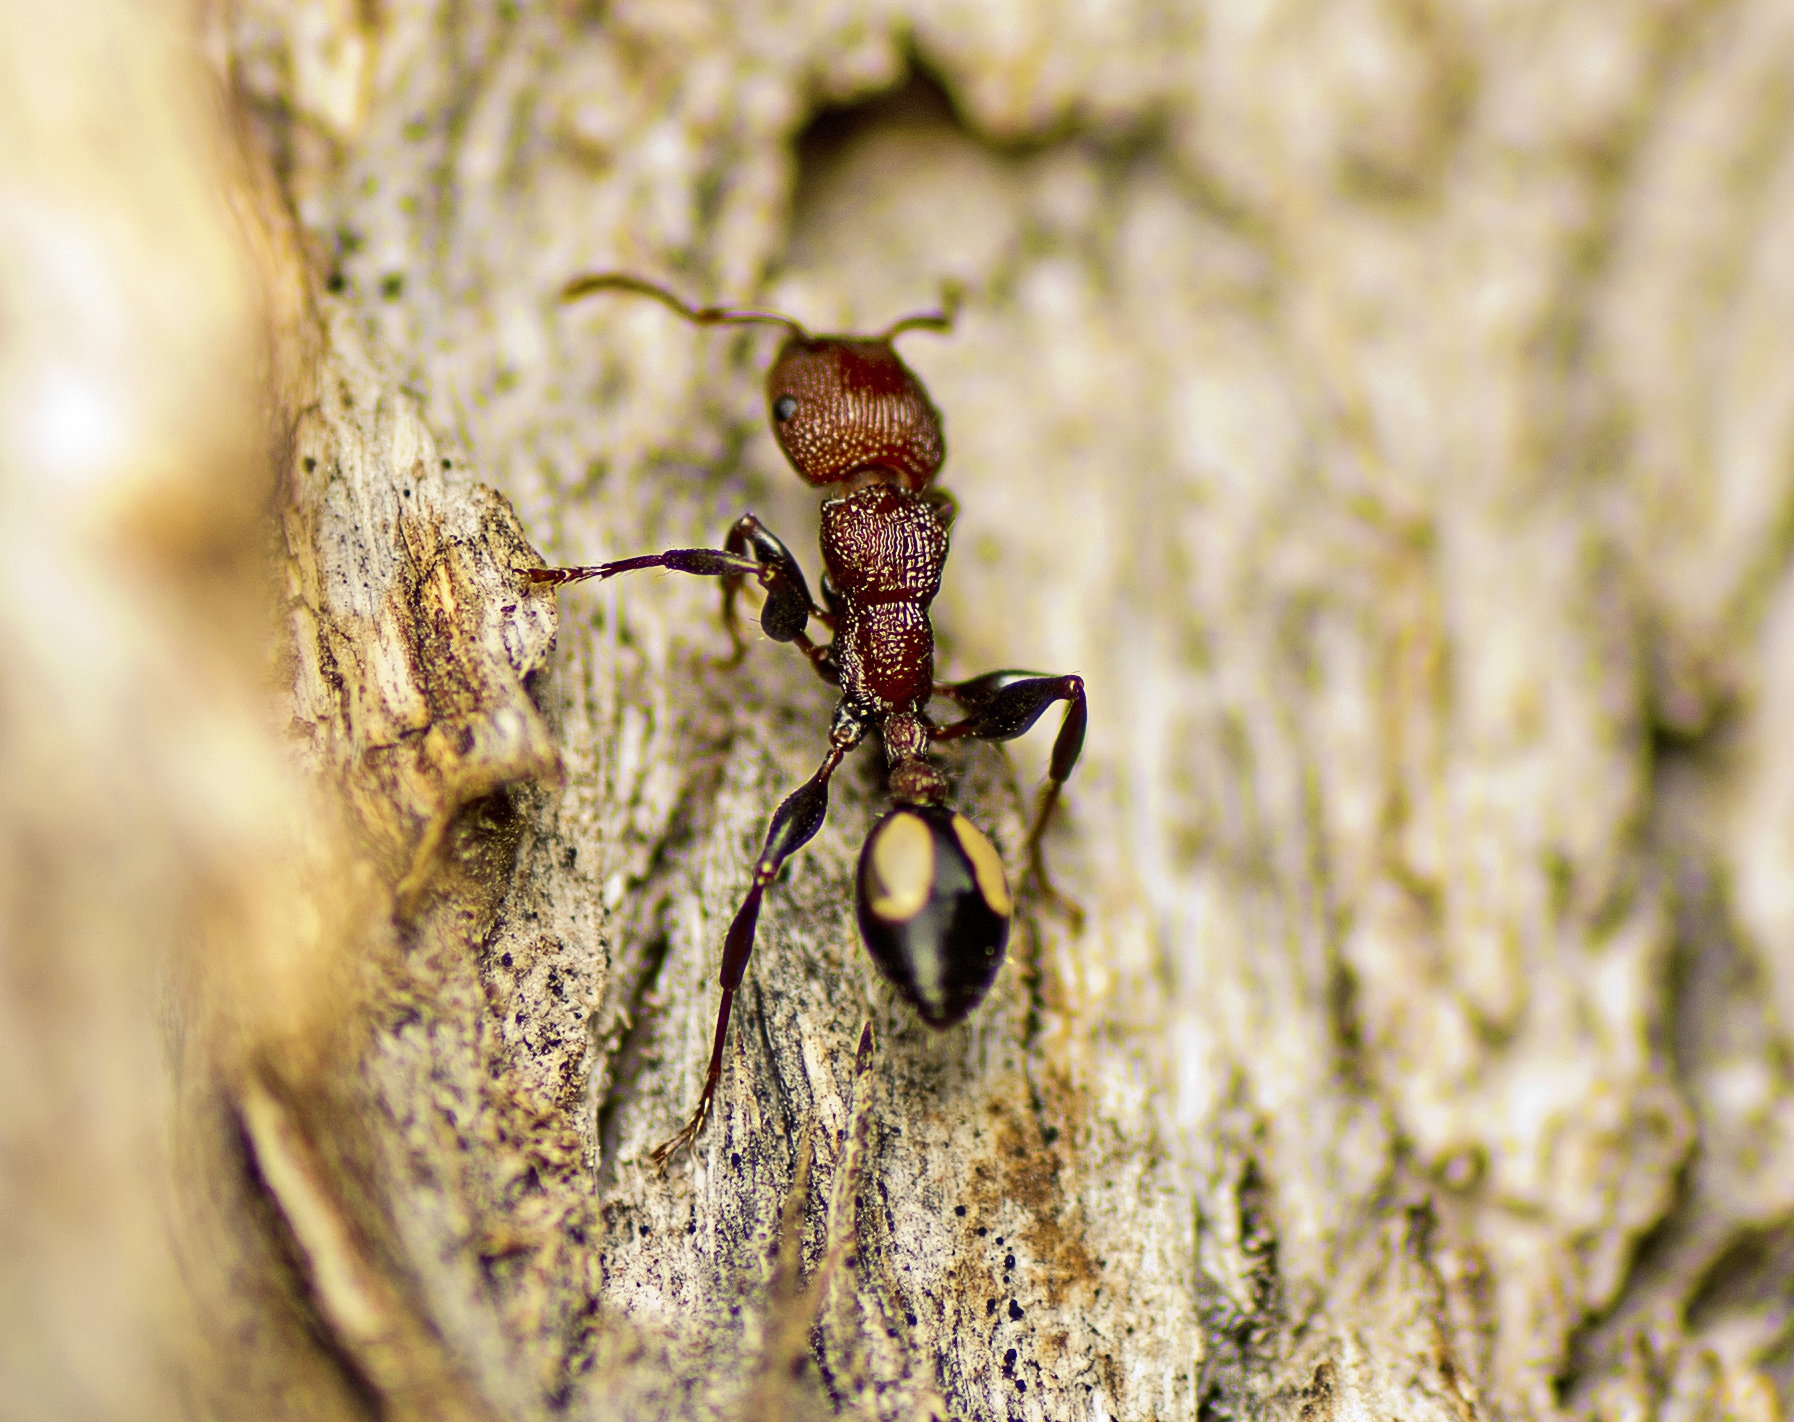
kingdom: Animalia
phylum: Arthropoda
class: Insecta
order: Hymenoptera
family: Formicidae
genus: Podomyrma
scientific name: Podomyrma adelaidae
